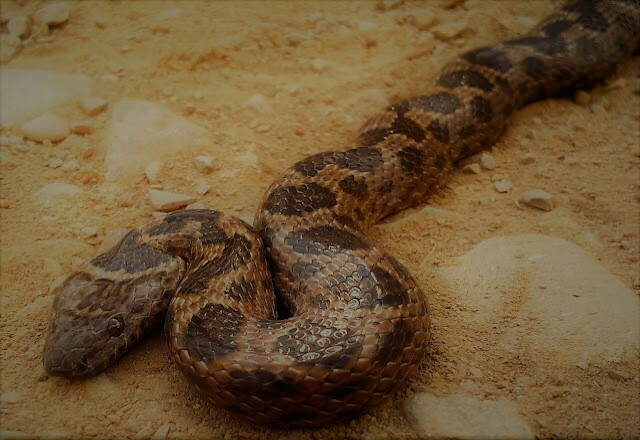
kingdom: Animalia
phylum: Chordata
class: Squamata
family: Lamprophiidae
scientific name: Lamprophiidae
